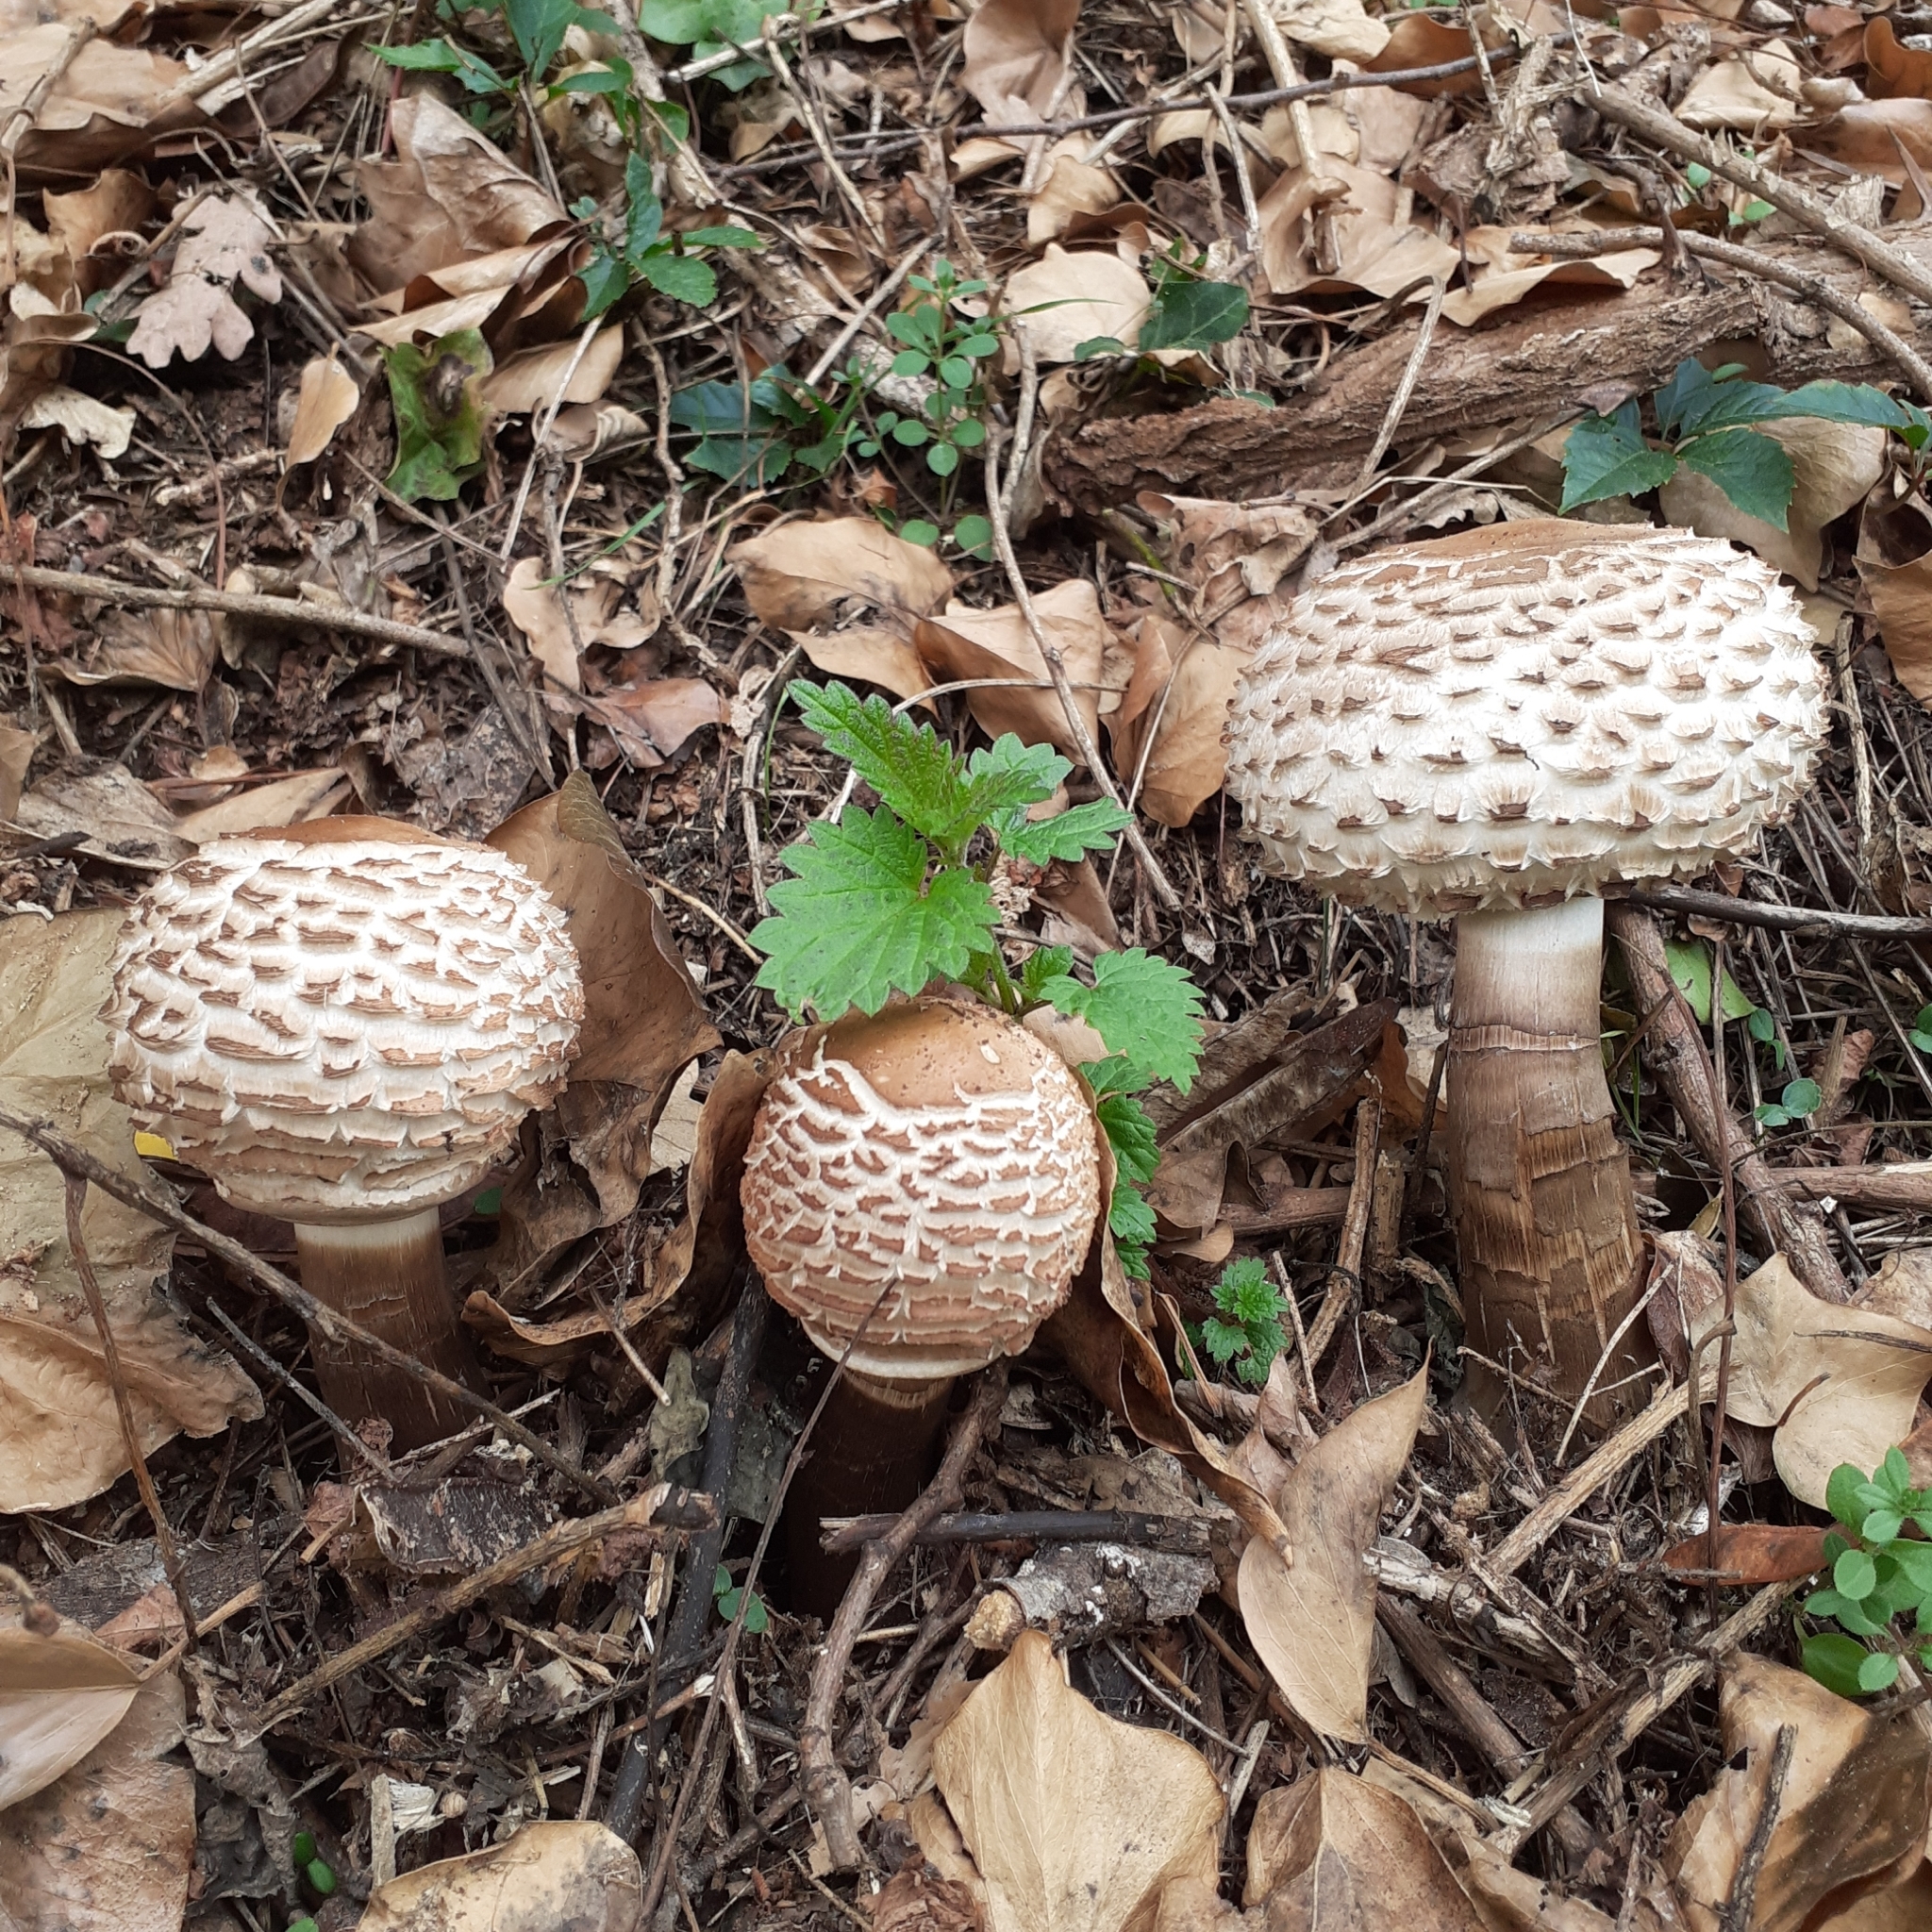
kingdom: Fungi
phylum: Basidiomycota
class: Agaricomycetes
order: Agaricales
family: Agaricaceae
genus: Chlorophyllum
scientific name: Chlorophyllum rhacodes
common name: Shaggy parasol
